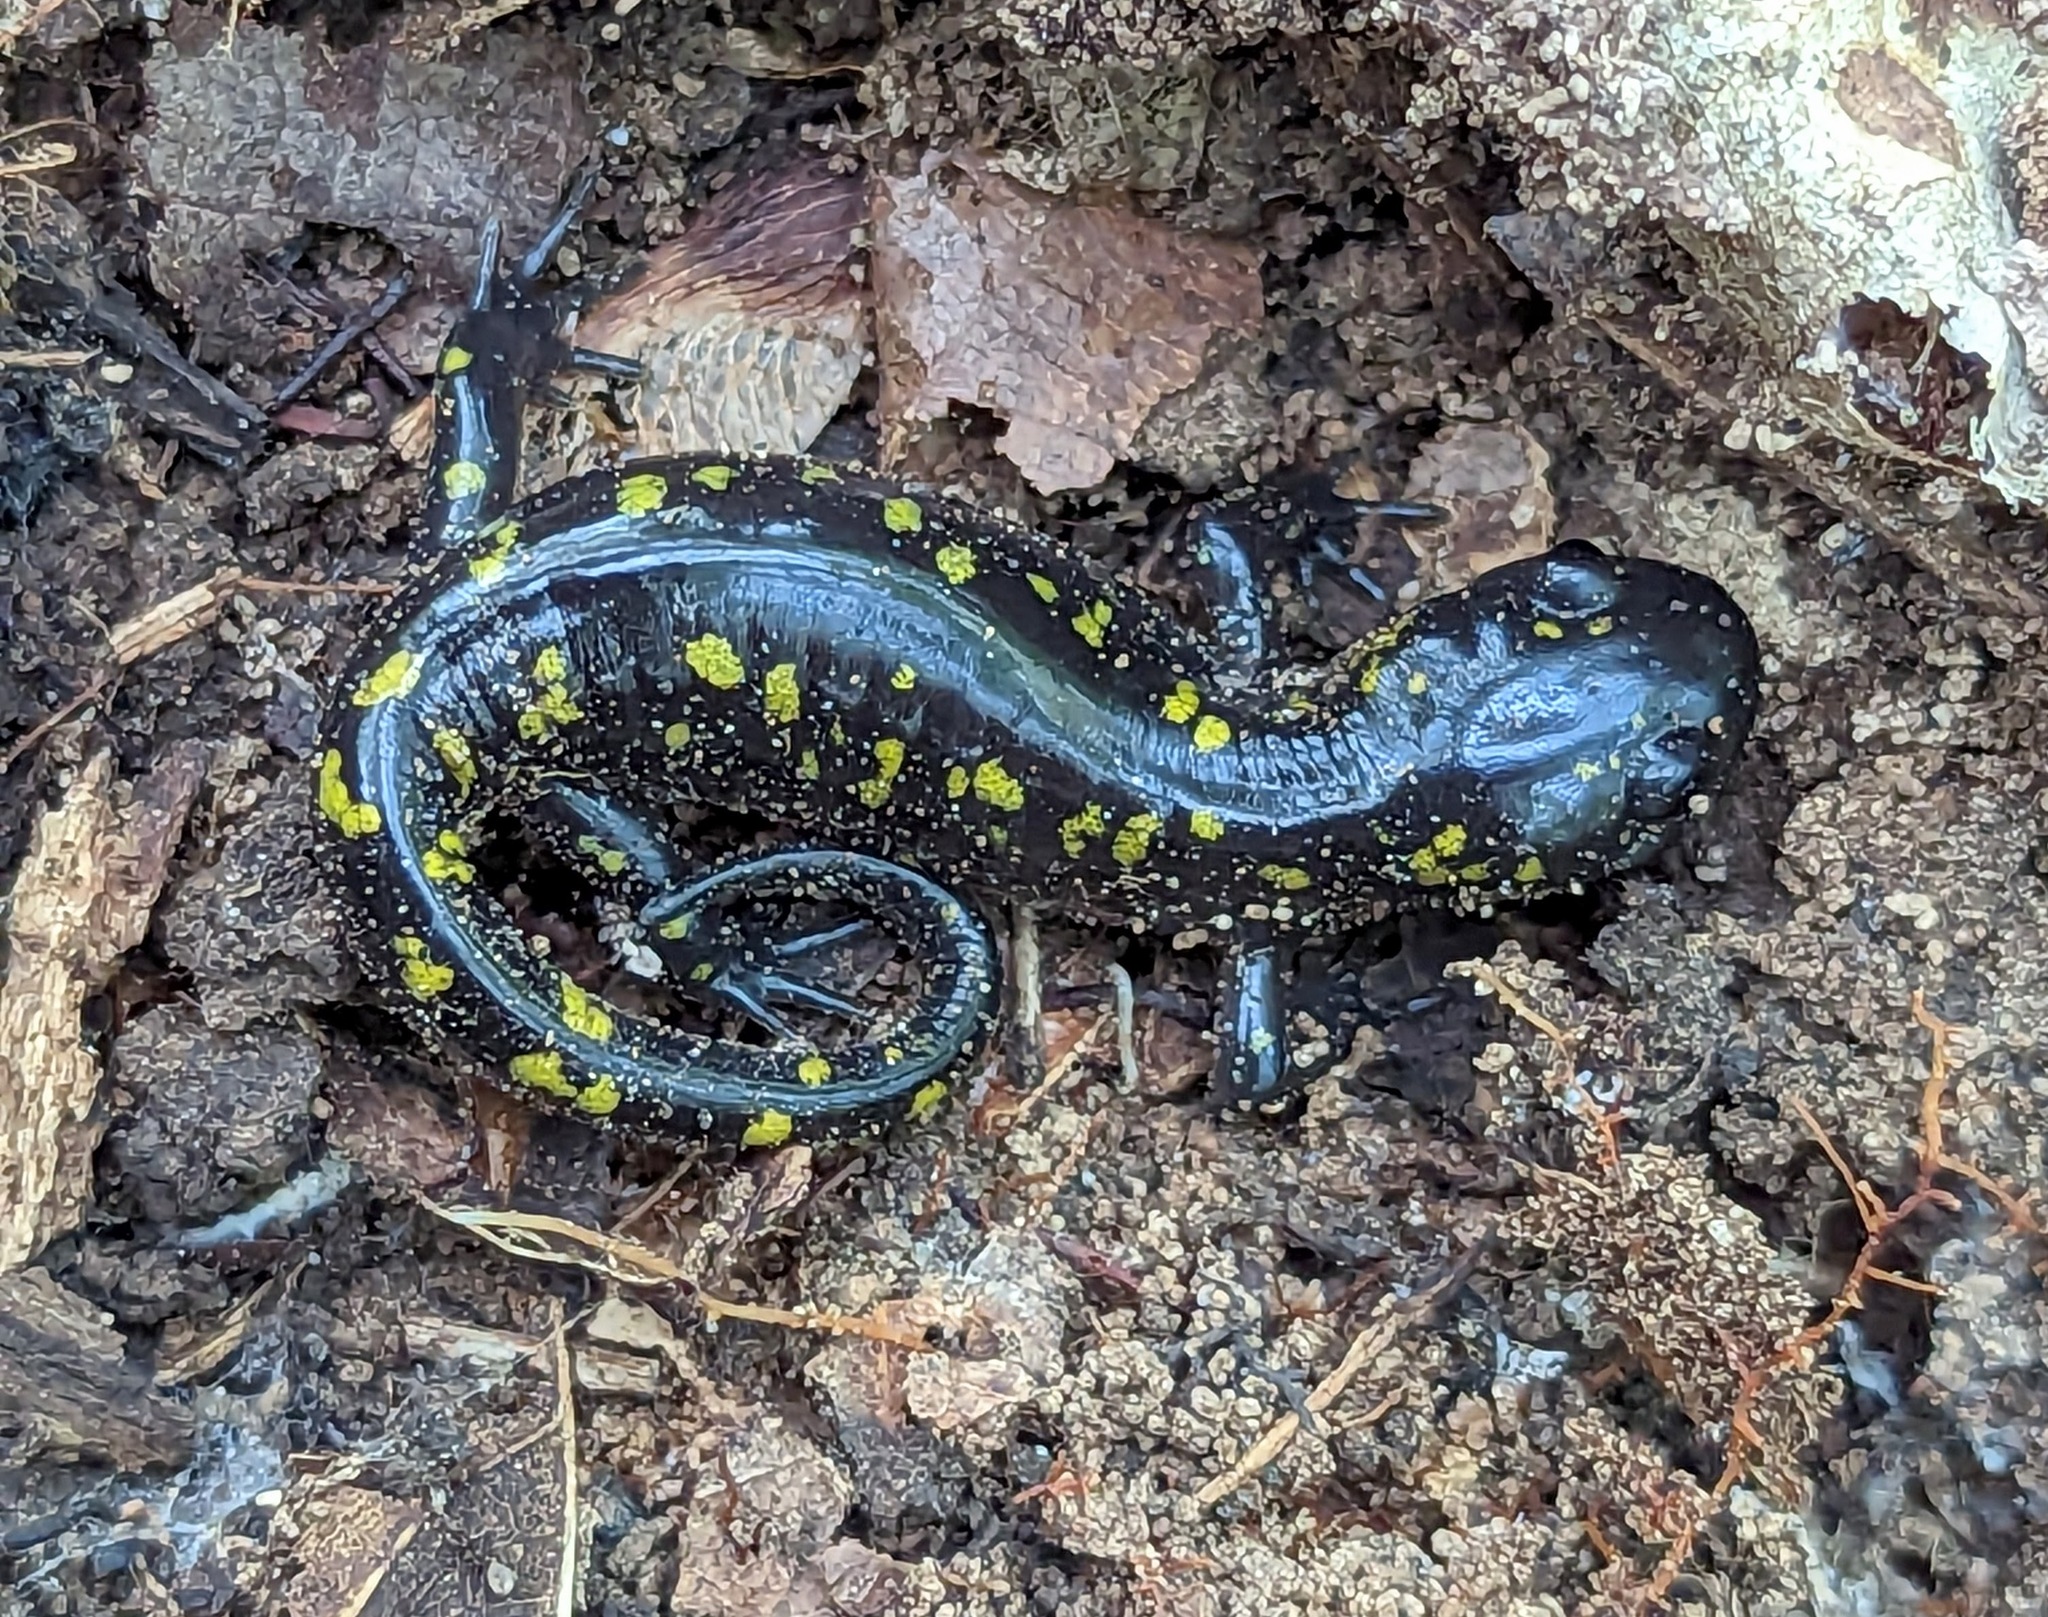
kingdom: Animalia
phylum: Chordata
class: Amphibia
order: Caudata
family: Ambystomatidae
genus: Ambystoma
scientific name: Ambystoma maculatum
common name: Spotted salamander
